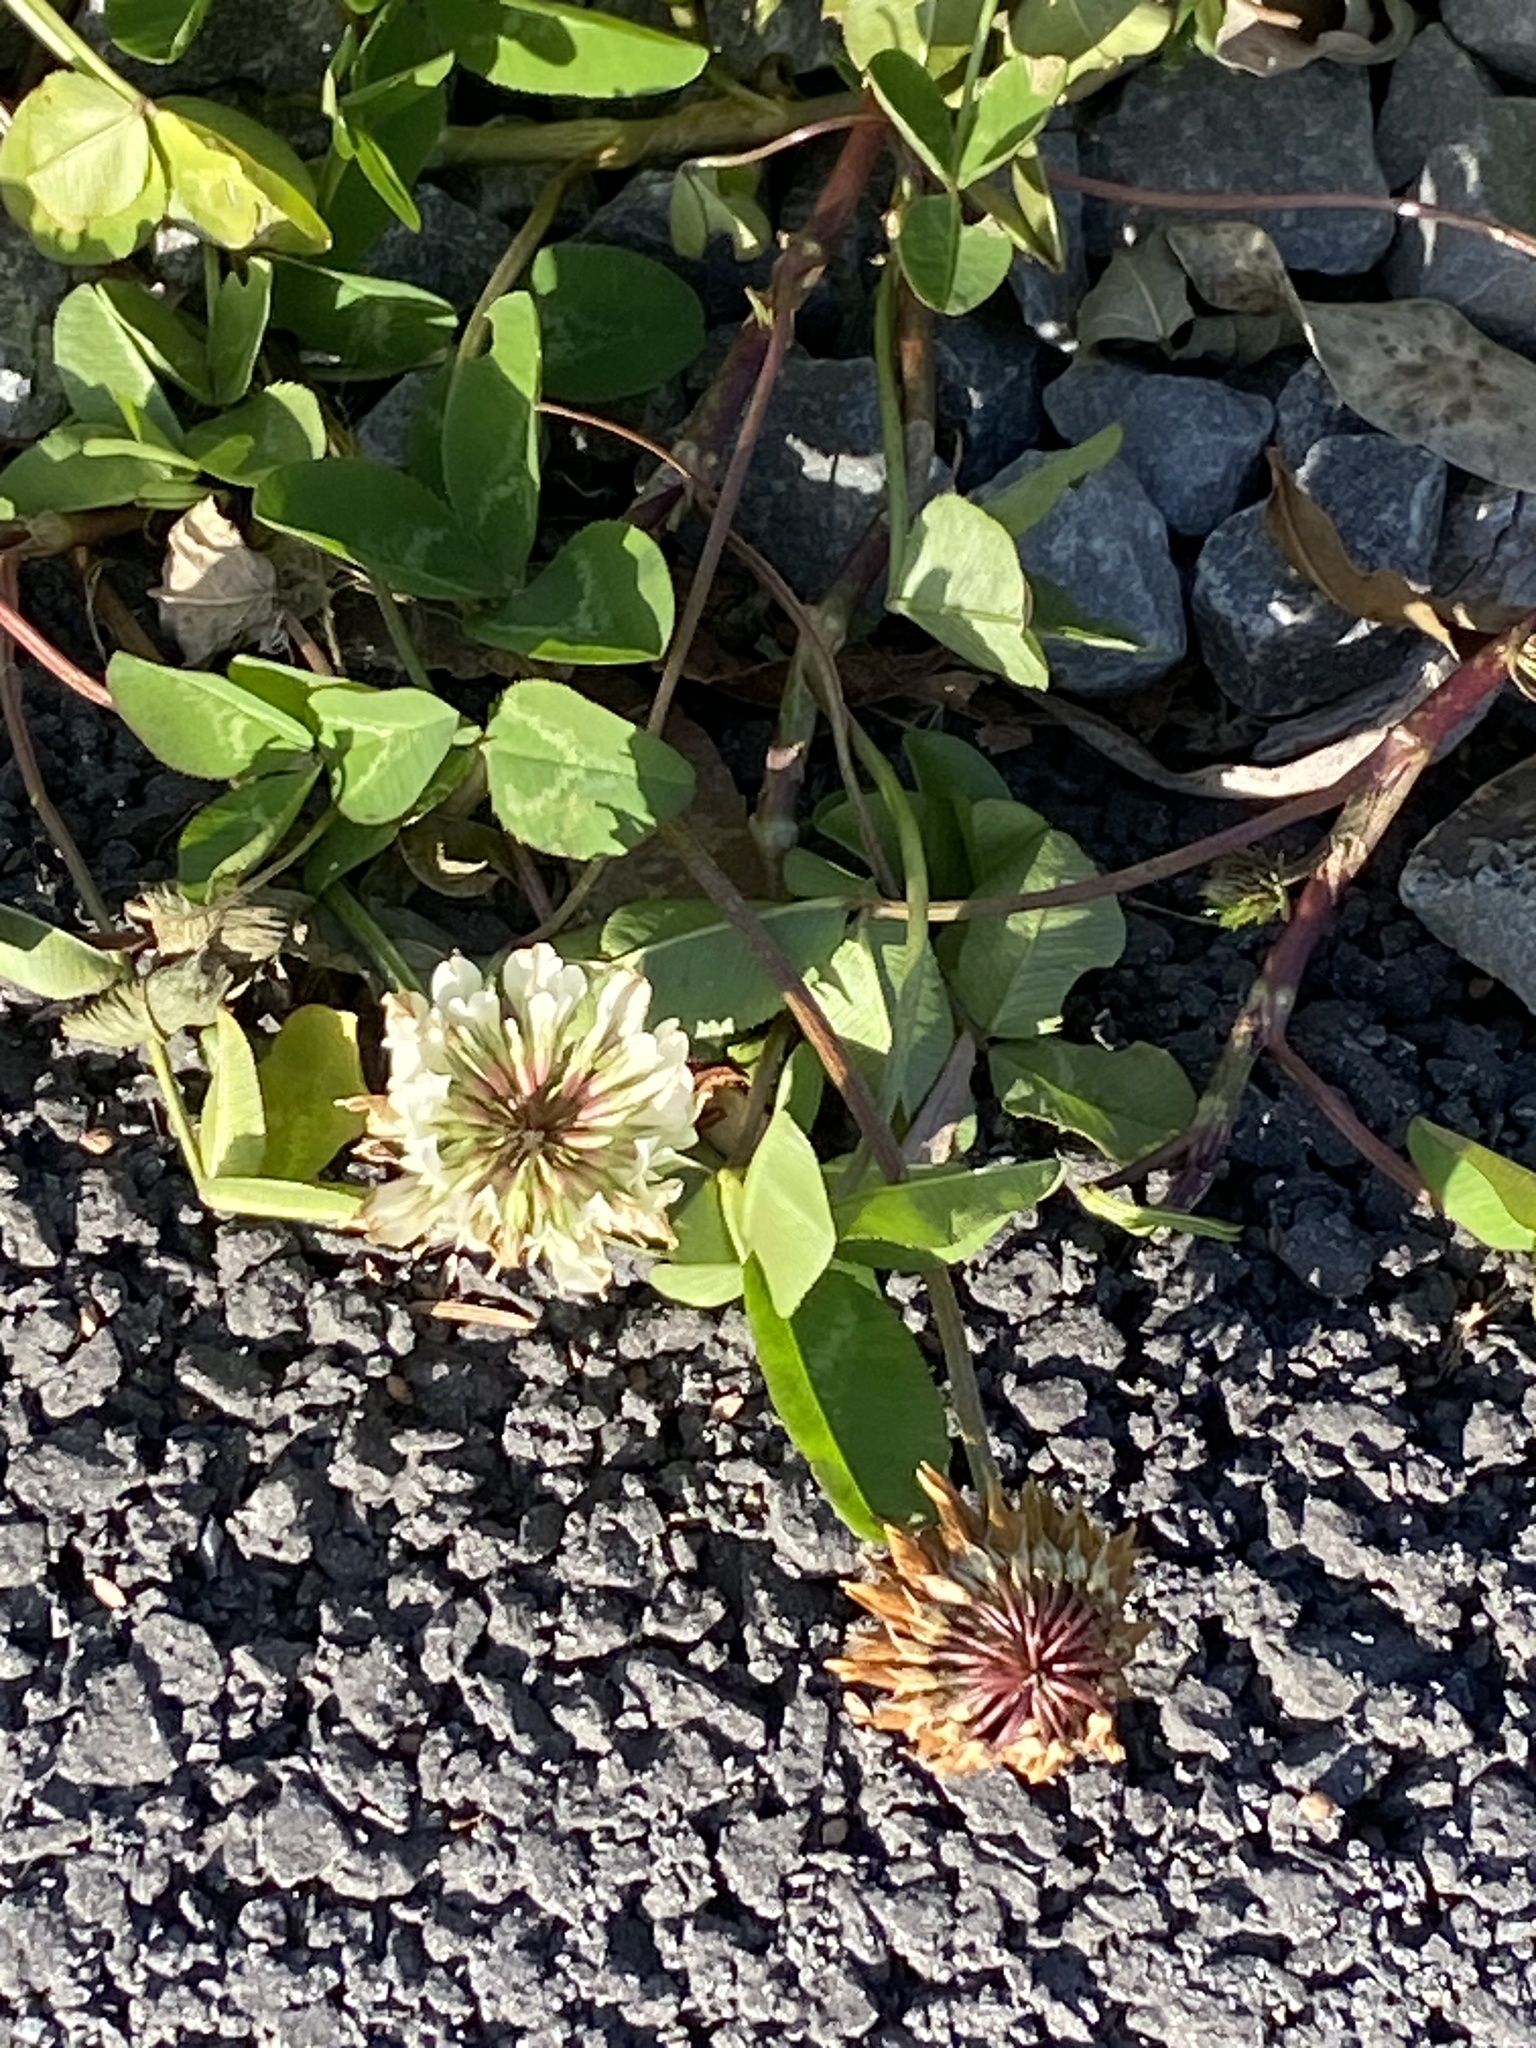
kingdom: Plantae
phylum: Tracheophyta
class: Magnoliopsida
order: Fabales
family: Fabaceae
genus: Trifolium
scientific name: Trifolium repens
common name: White clover
